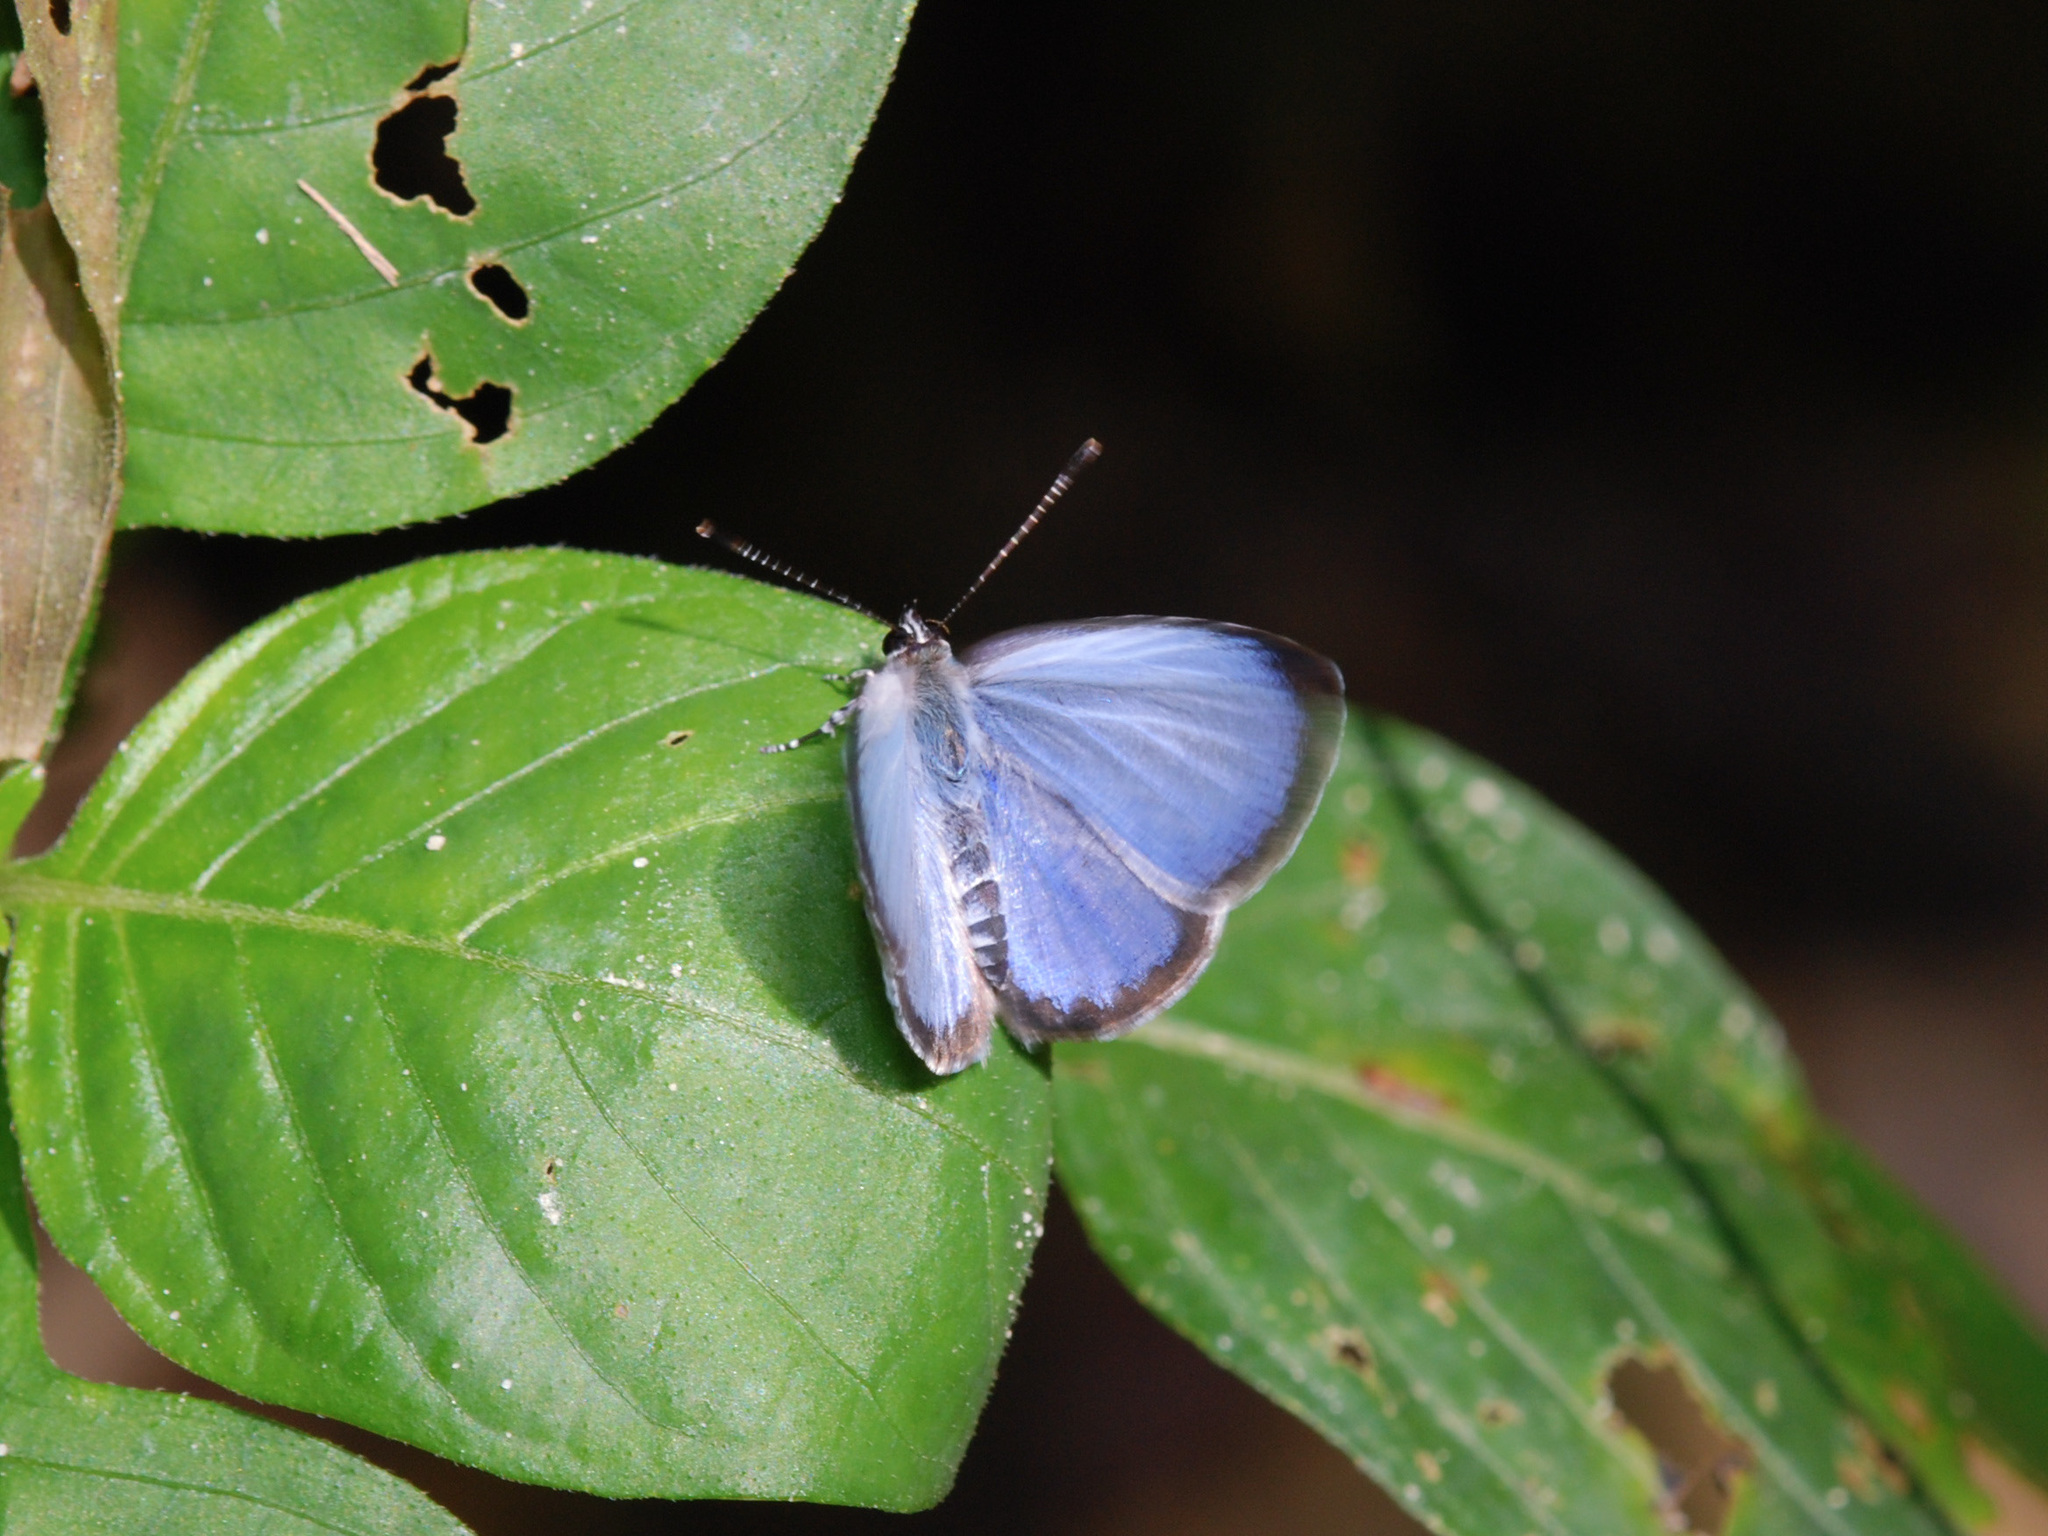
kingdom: Animalia
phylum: Arthropoda
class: Insecta
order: Lepidoptera
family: Lycaenidae
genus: Acytolepis
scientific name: Acytolepis puspa
